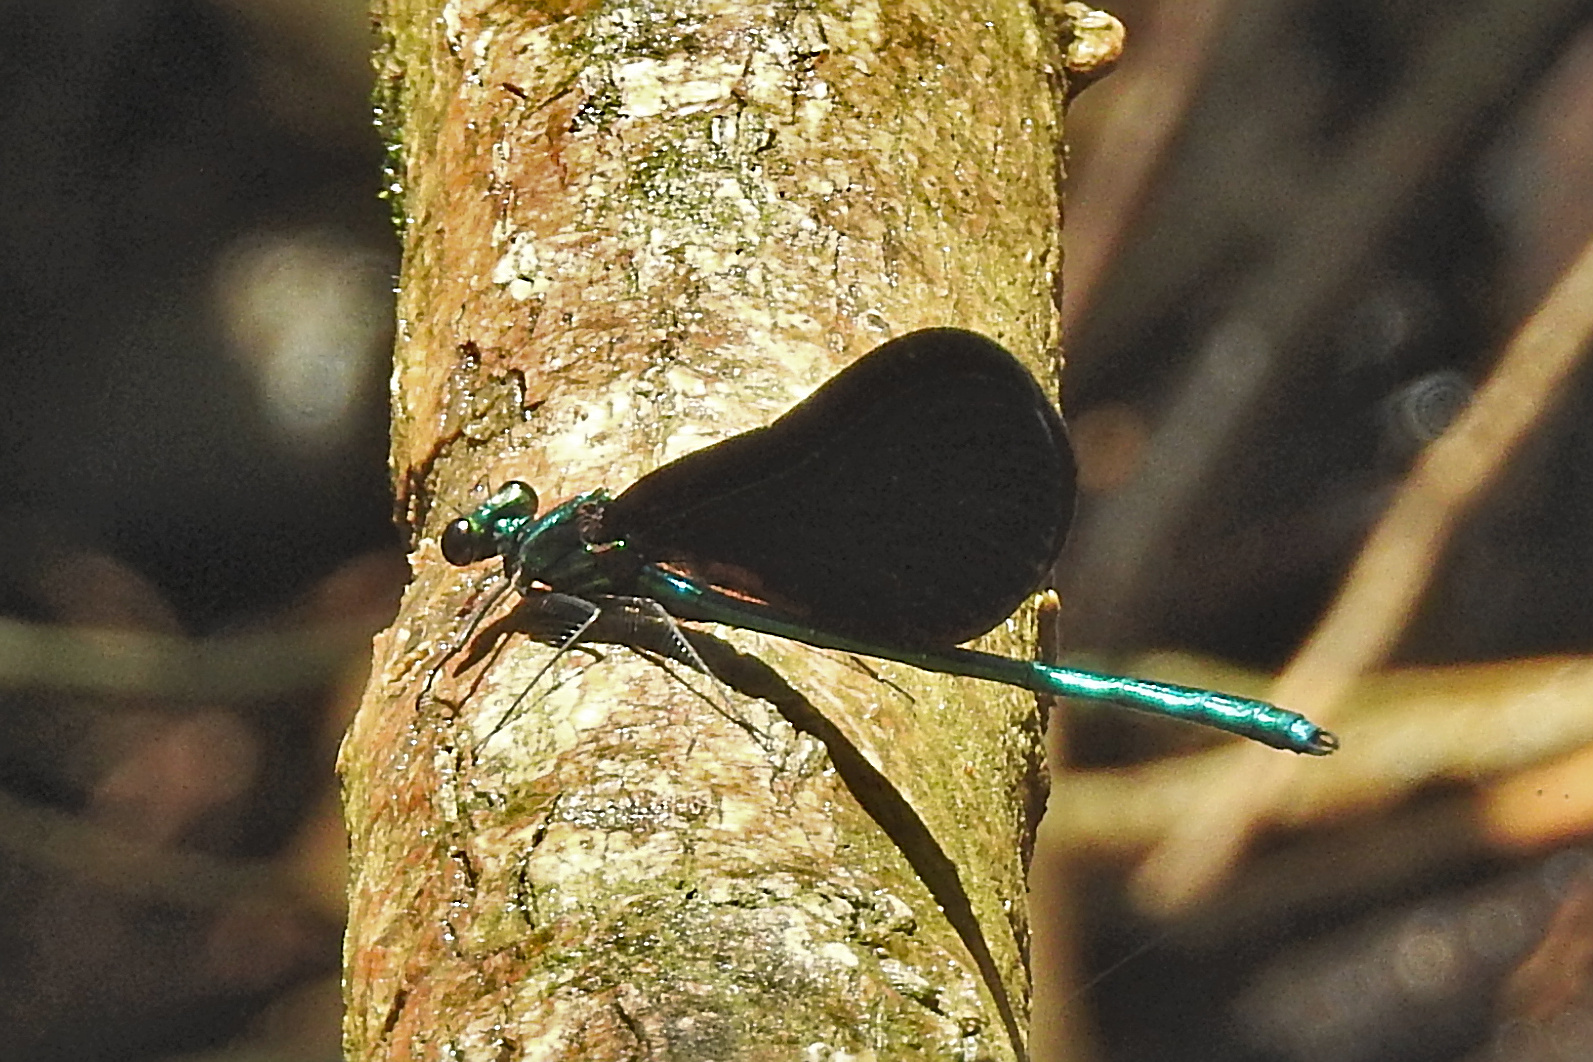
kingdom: Animalia
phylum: Arthropoda
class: Insecta
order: Odonata
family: Calopterygidae
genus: Calopteryx
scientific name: Calopteryx maculata
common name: Ebony jewelwing
